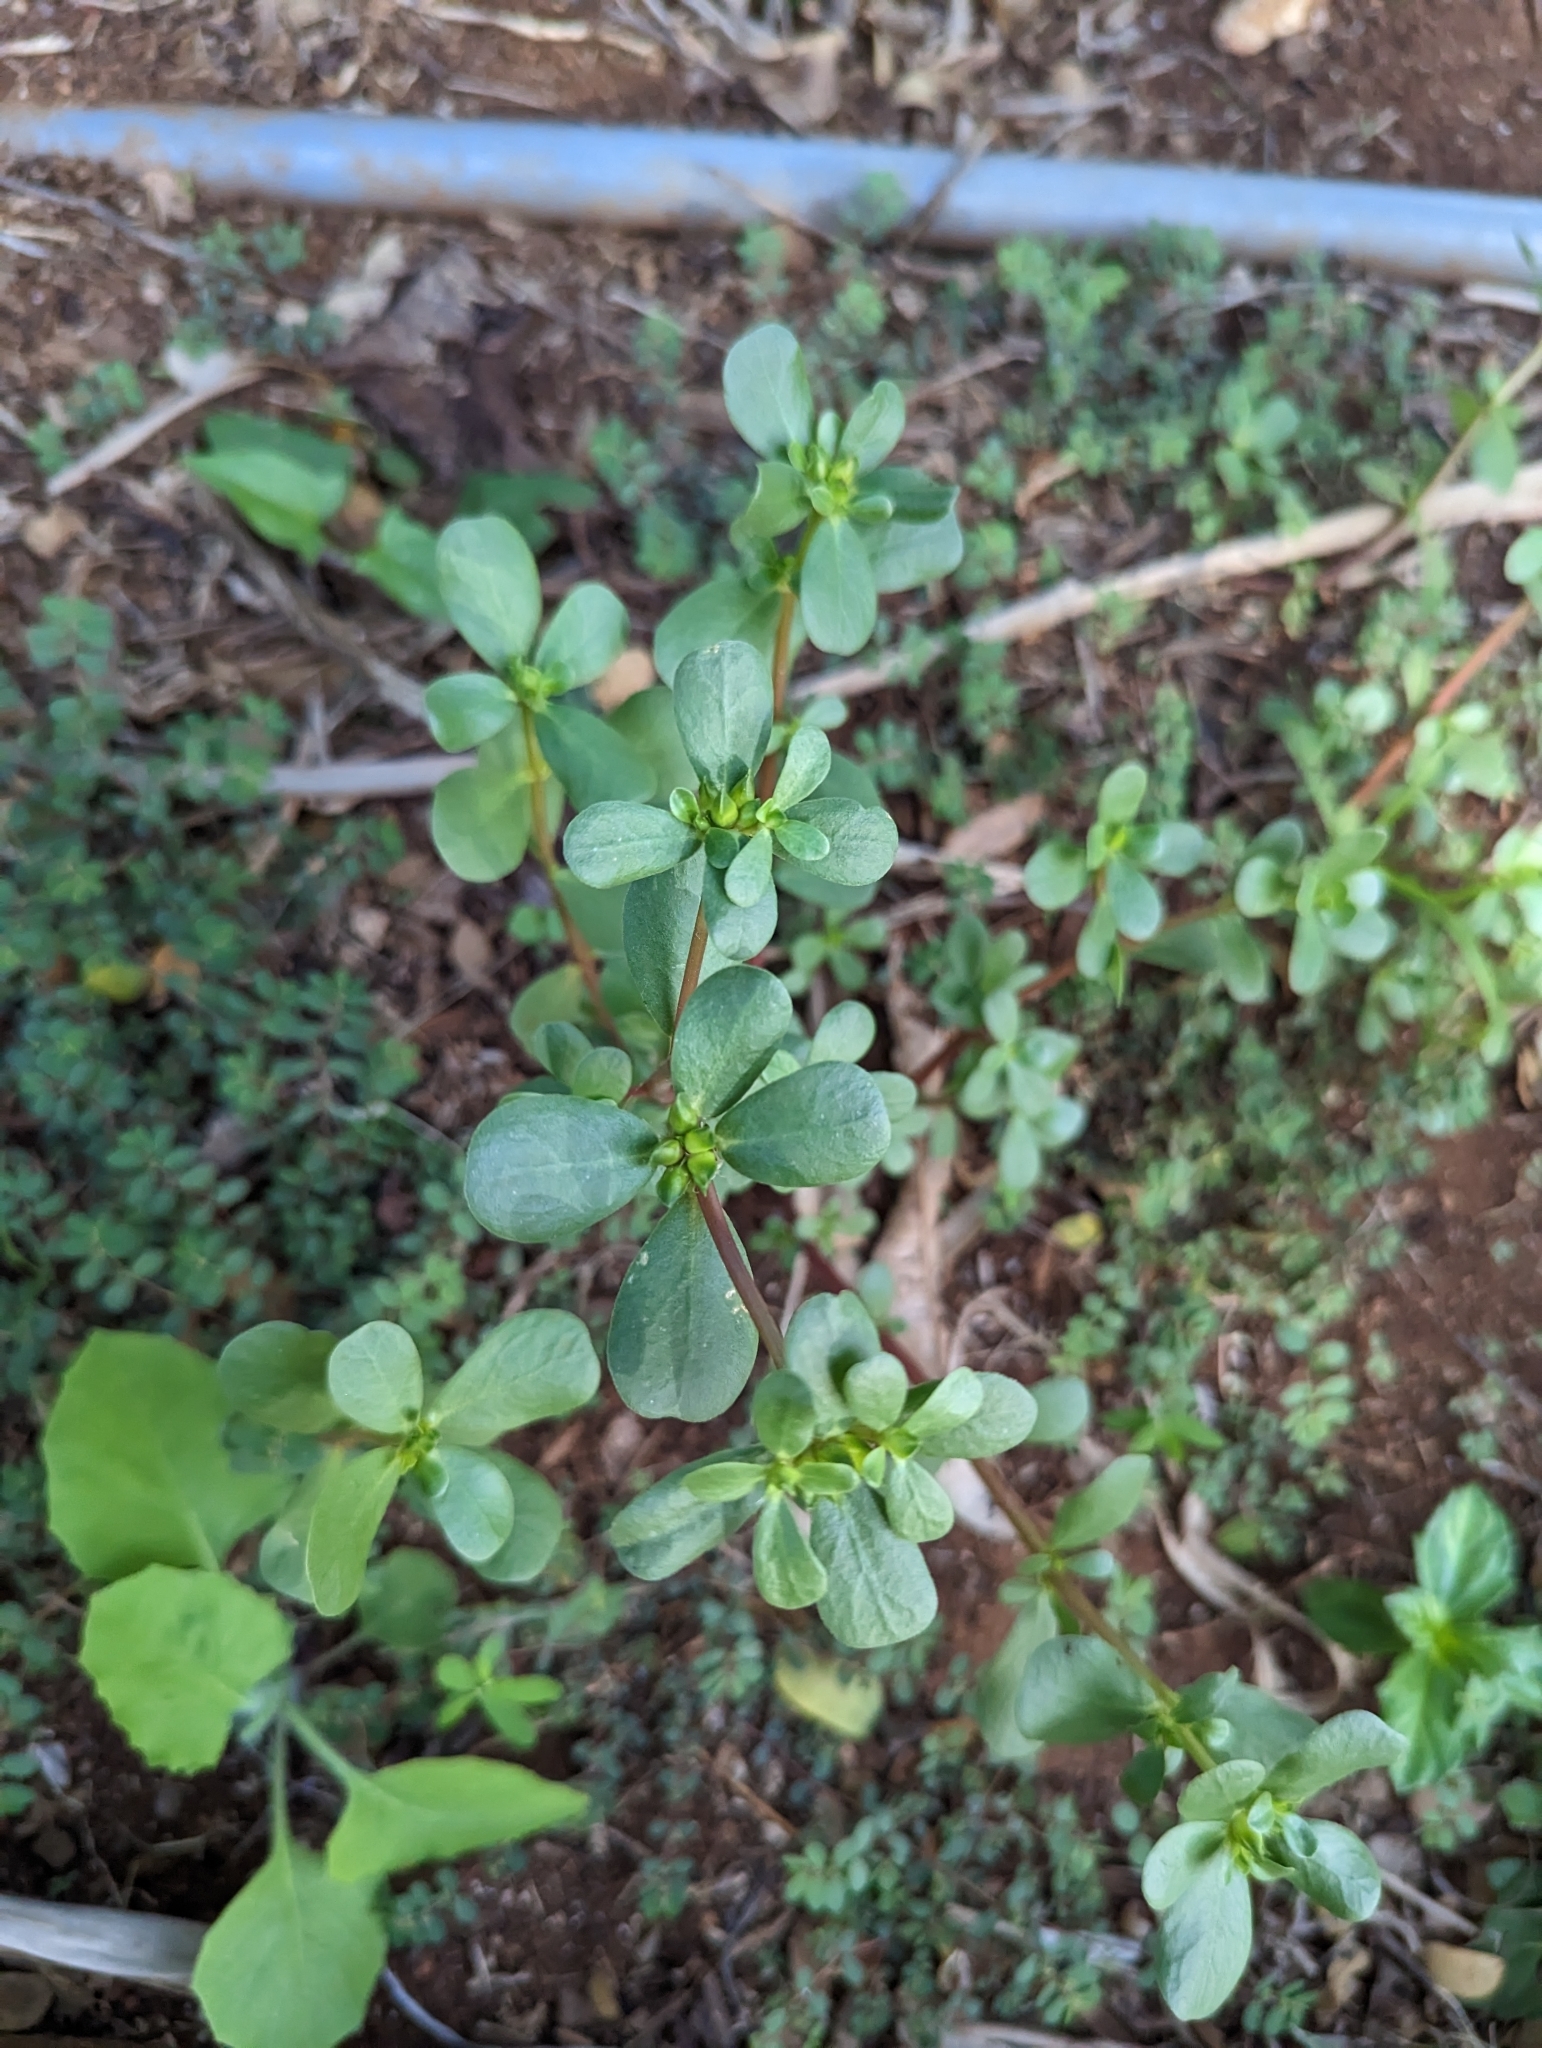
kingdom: Plantae
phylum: Tracheophyta
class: Magnoliopsida
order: Caryophyllales
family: Portulacaceae
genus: Portulaca
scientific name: Portulaca oleracea
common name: Common purslane
